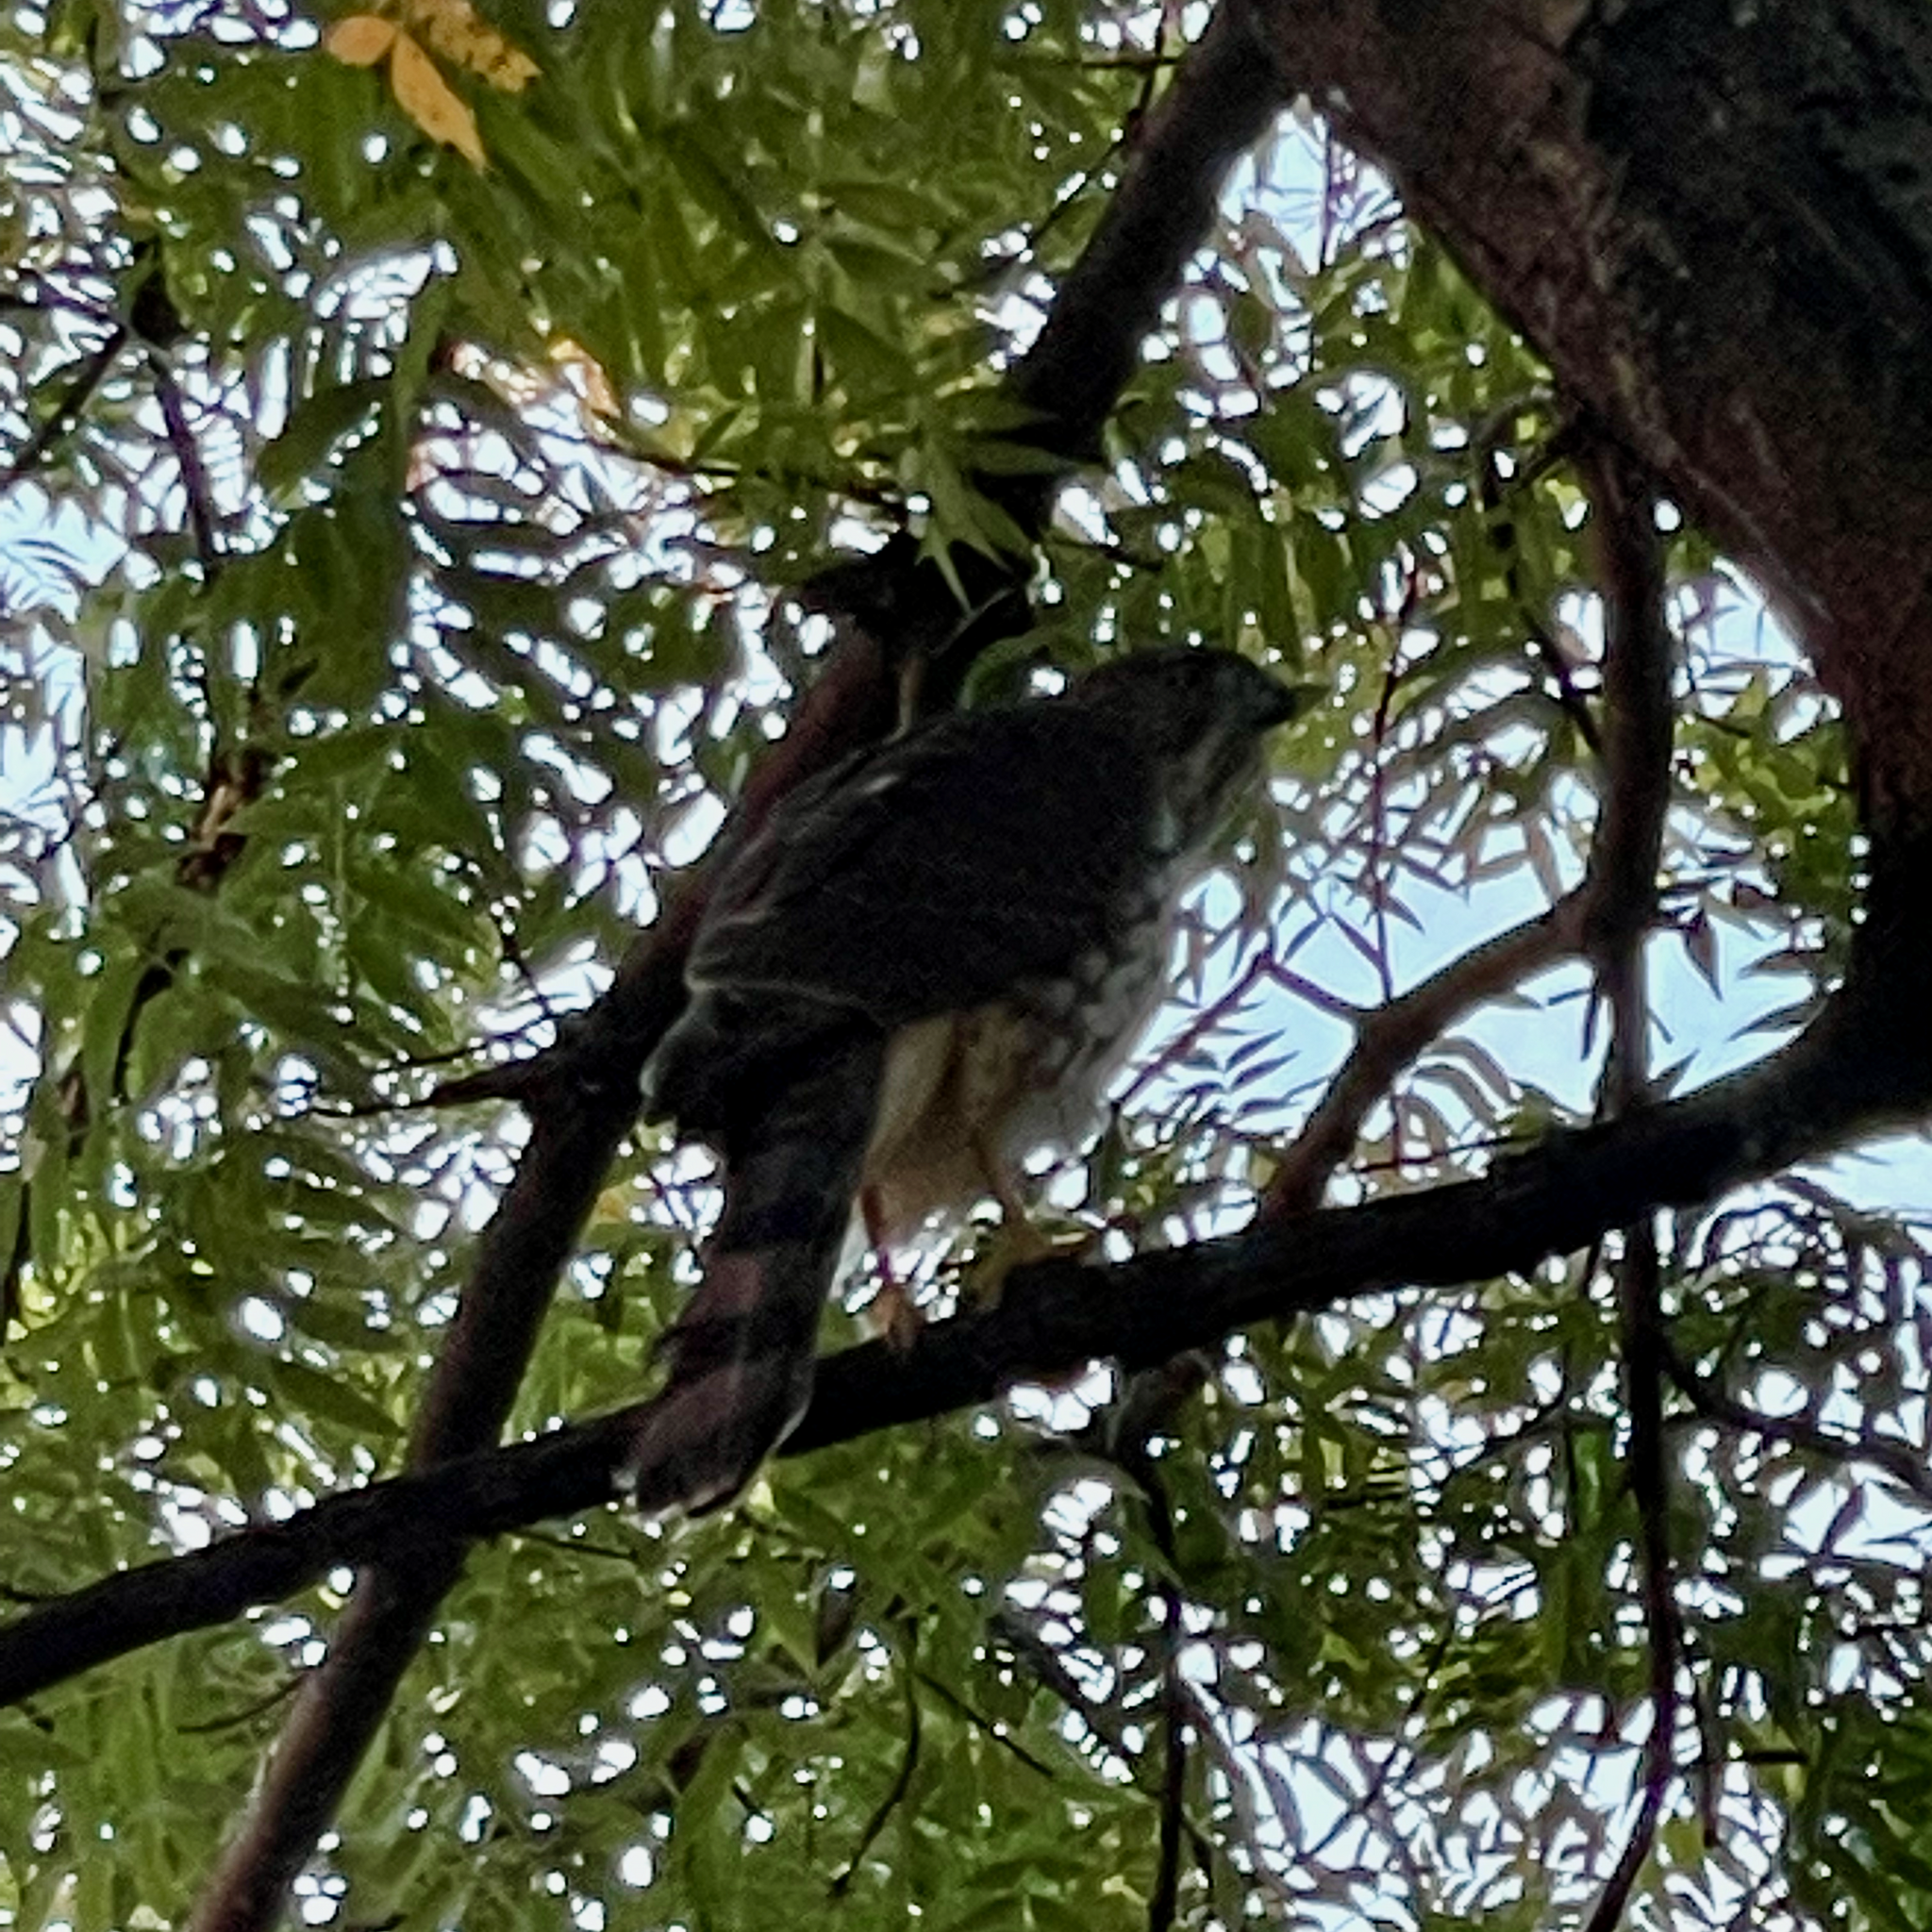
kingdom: Animalia
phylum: Chordata
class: Aves
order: Accipitriformes
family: Accipitridae
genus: Accipiter
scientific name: Accipiter cooperii
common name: Cooper's hawk
